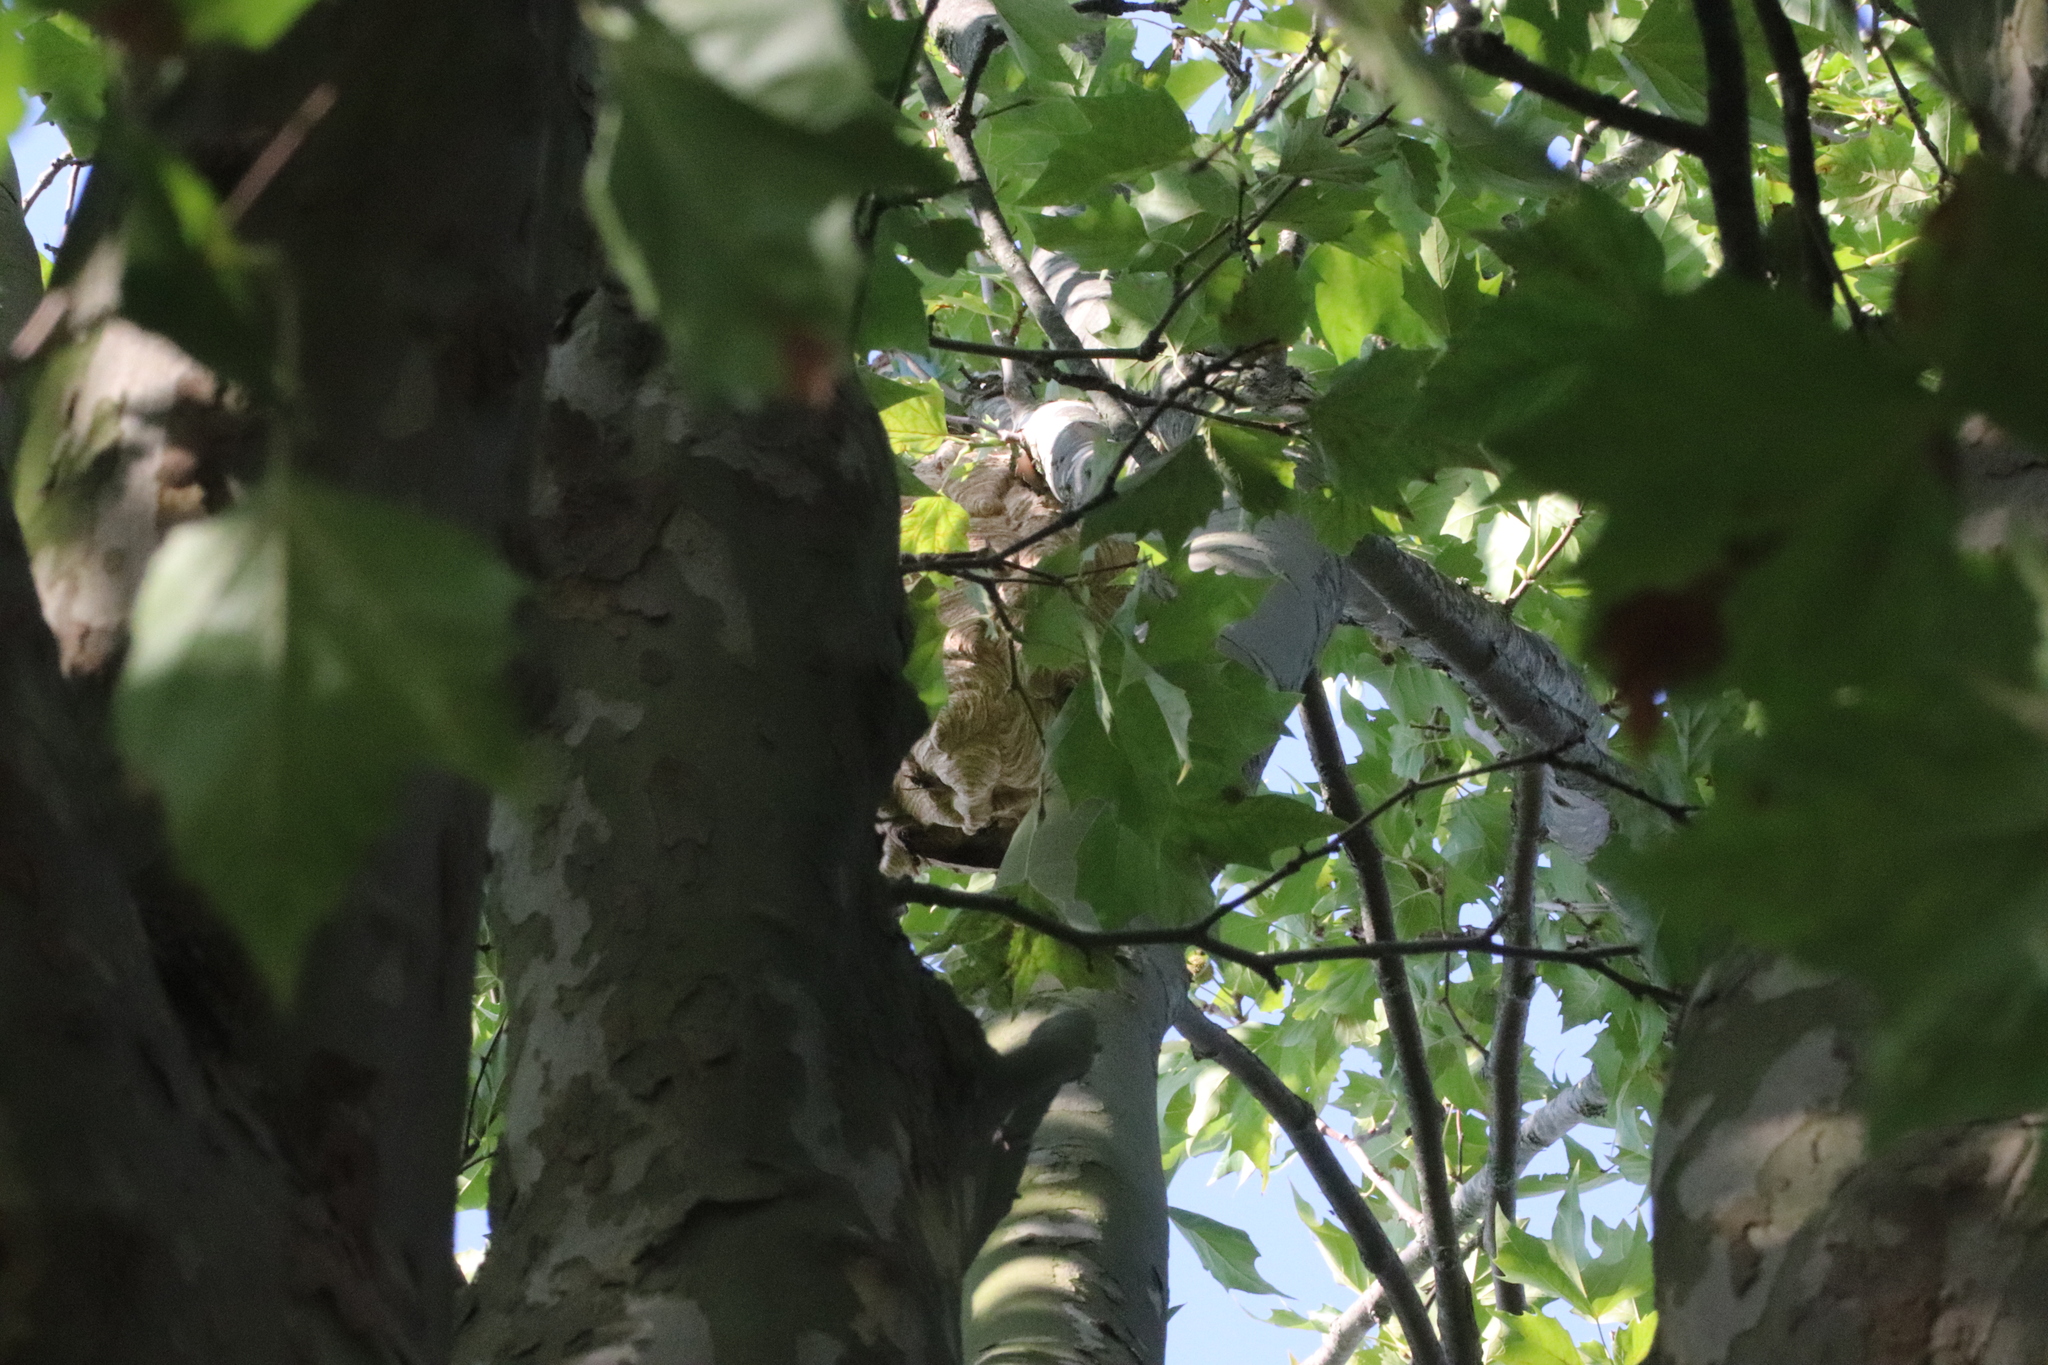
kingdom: Animalia
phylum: Arthropoda
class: Insecta
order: Hymenoptera
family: Vespidae
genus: Vespa
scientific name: Vespa velutina
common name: Asian hornet
